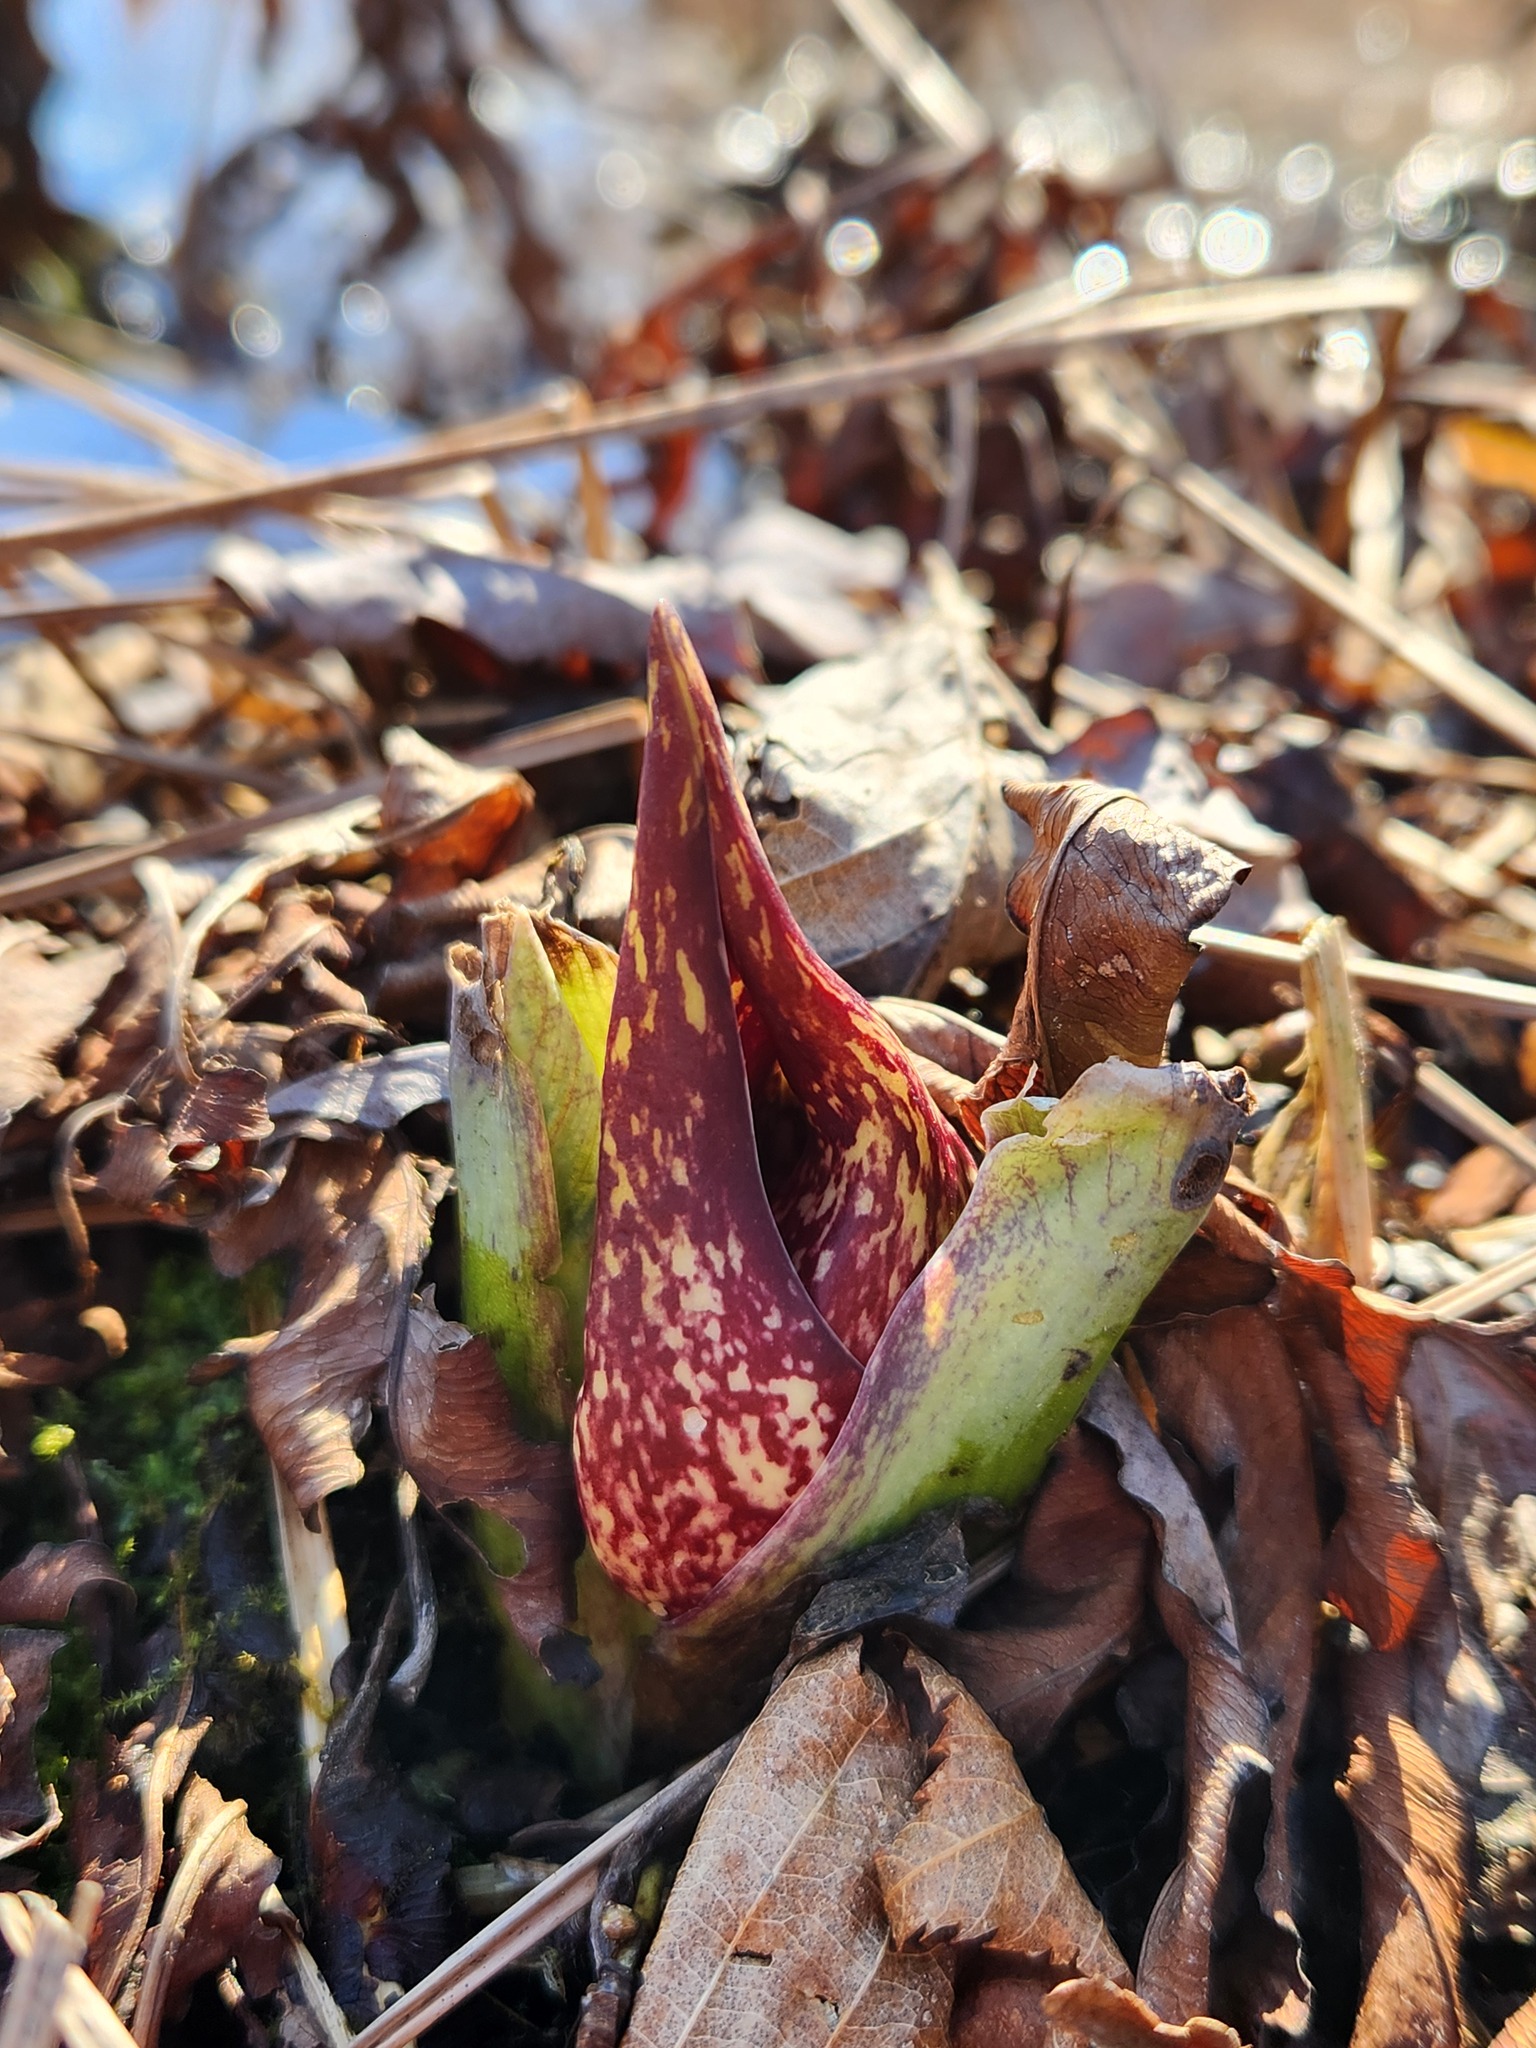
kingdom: Plantae
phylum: Tracheophyta
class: Liliopsida
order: Alismatales
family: Araceae
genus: Symplocarpus
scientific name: Symplocarpus foetidus
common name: Eastern skunk cabbage
